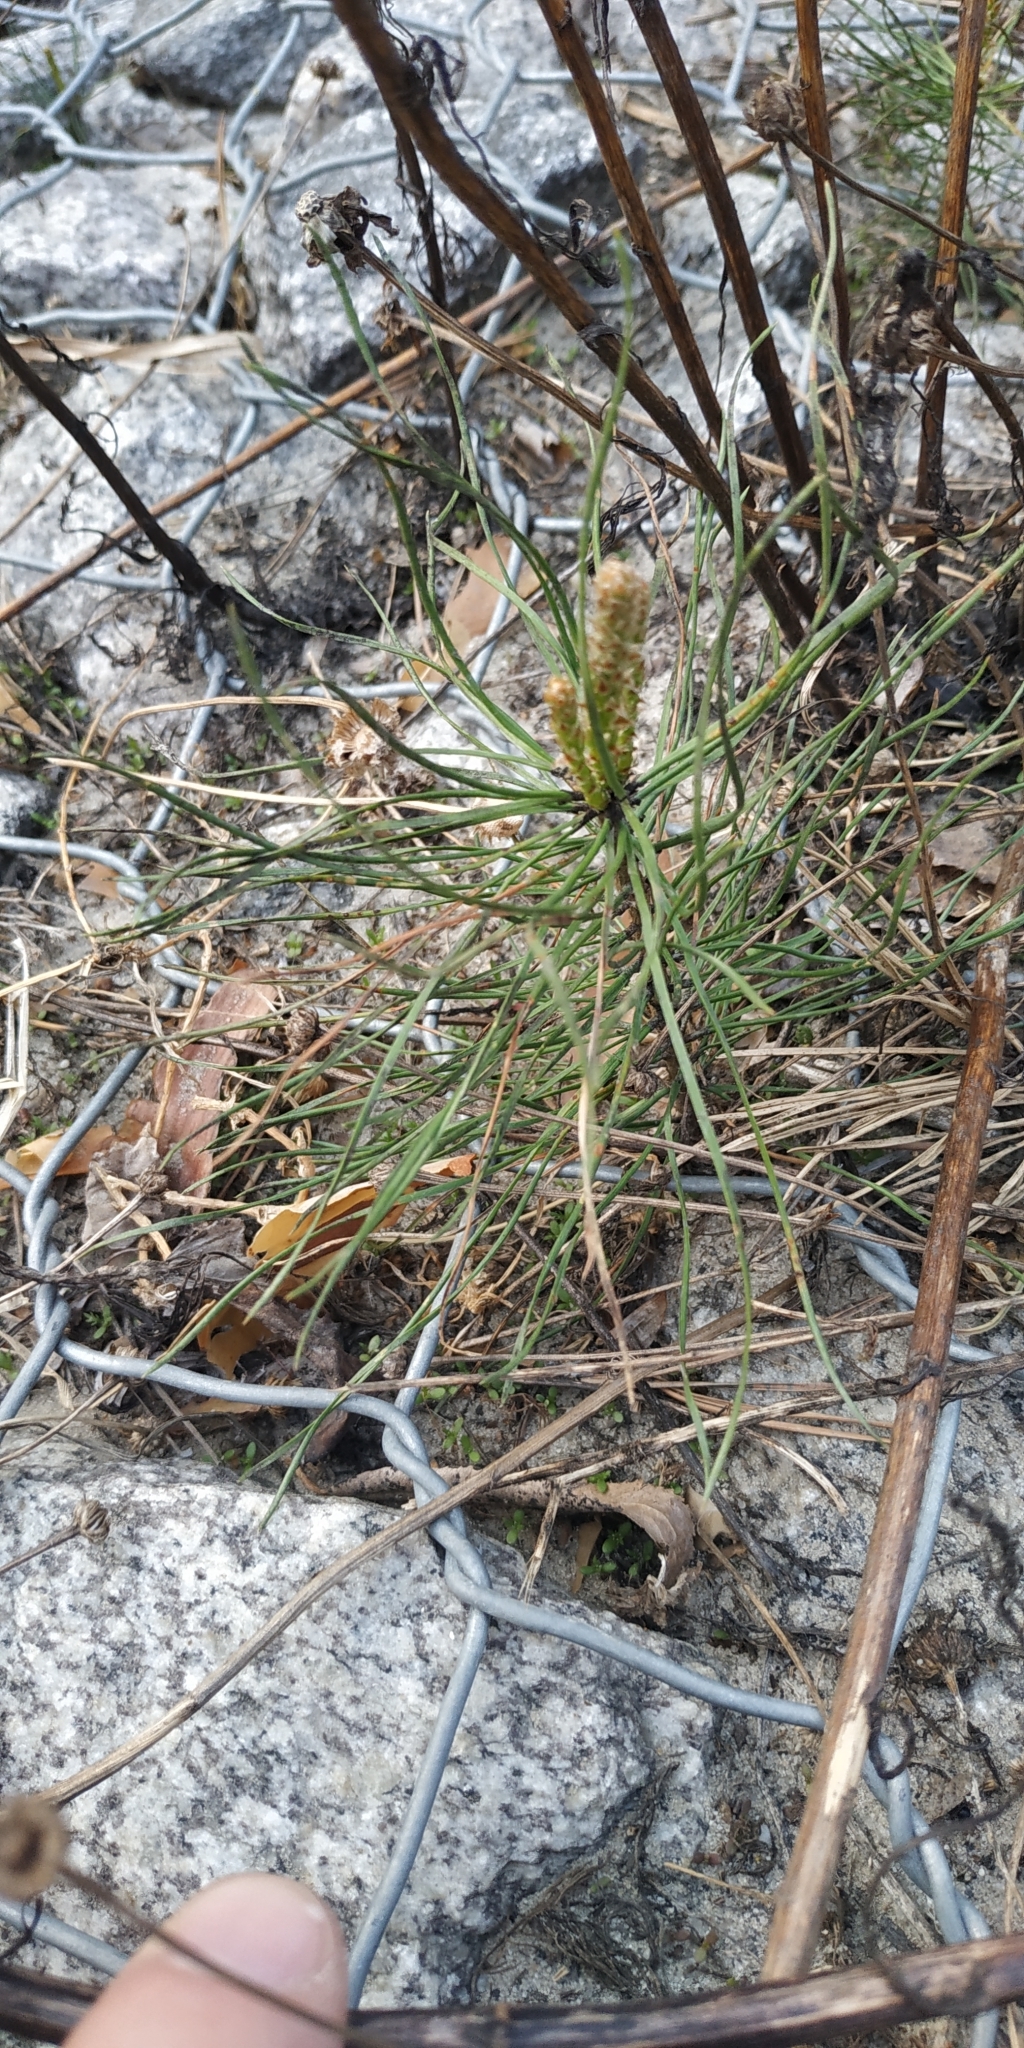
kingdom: Plantae
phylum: Tracheophyta
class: Pinopsida
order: Pinales
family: Pinaceae
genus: Pinus
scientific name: Pinus sylvestris
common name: Scots pine
